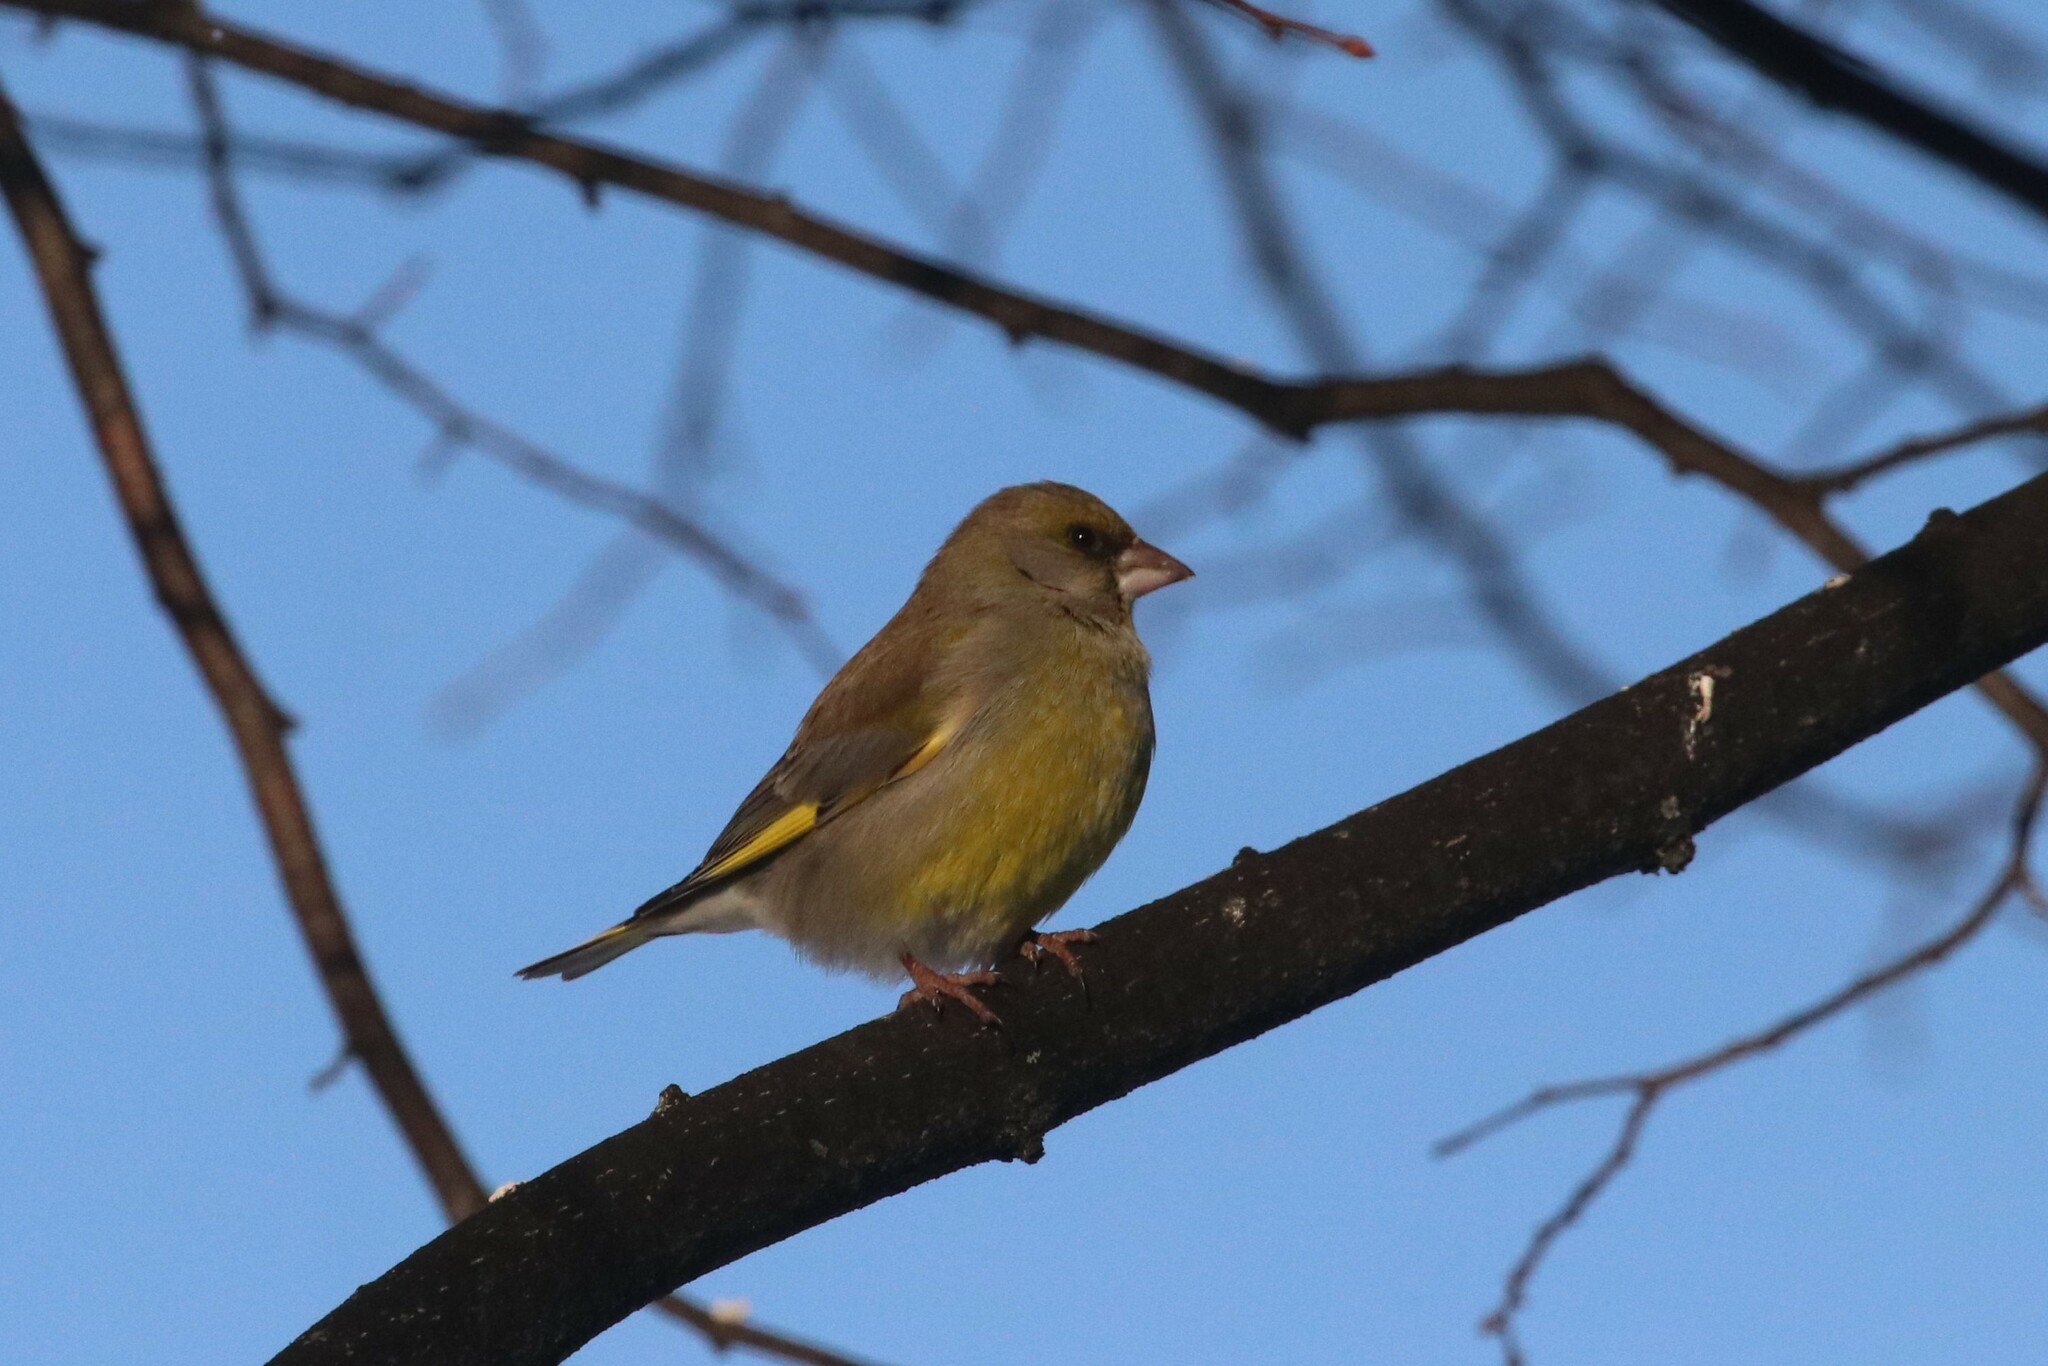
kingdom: Plantae
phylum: Tracheophyta
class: Liliopsida
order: Poales
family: Poaceae
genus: Chloris
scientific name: Chloris chloris
